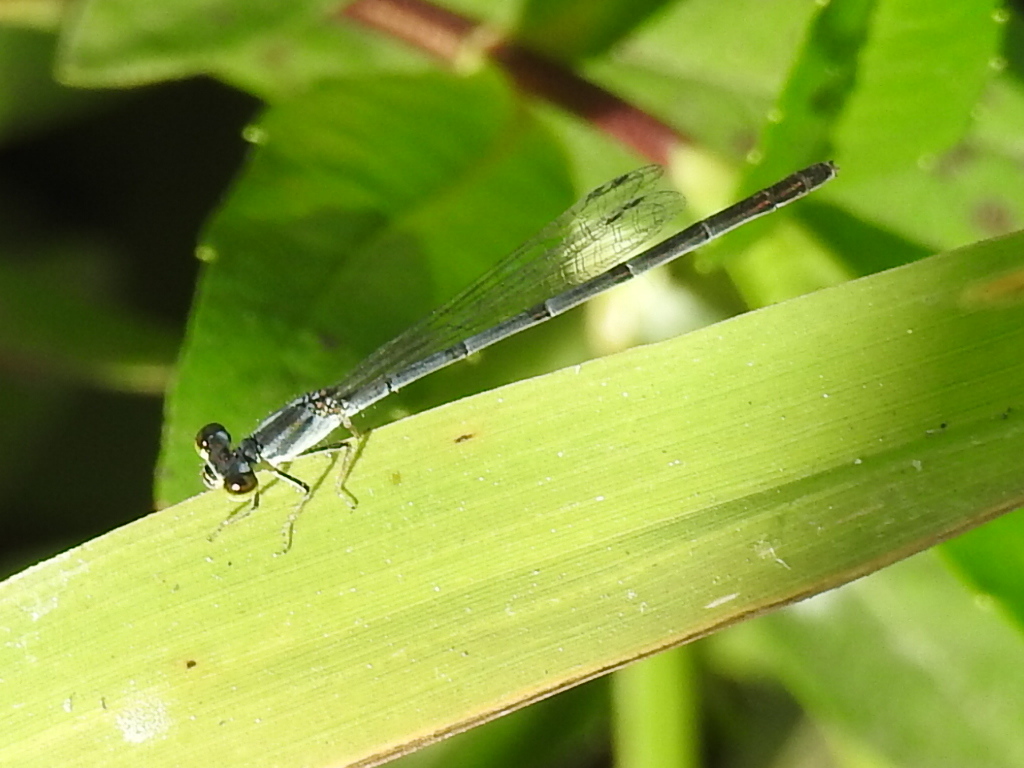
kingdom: Animalia
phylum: Arthropoda
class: Insecta
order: Odonata
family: Coenagrionidae
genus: Ischnura
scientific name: Ischnura posita
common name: Fragile forktail
